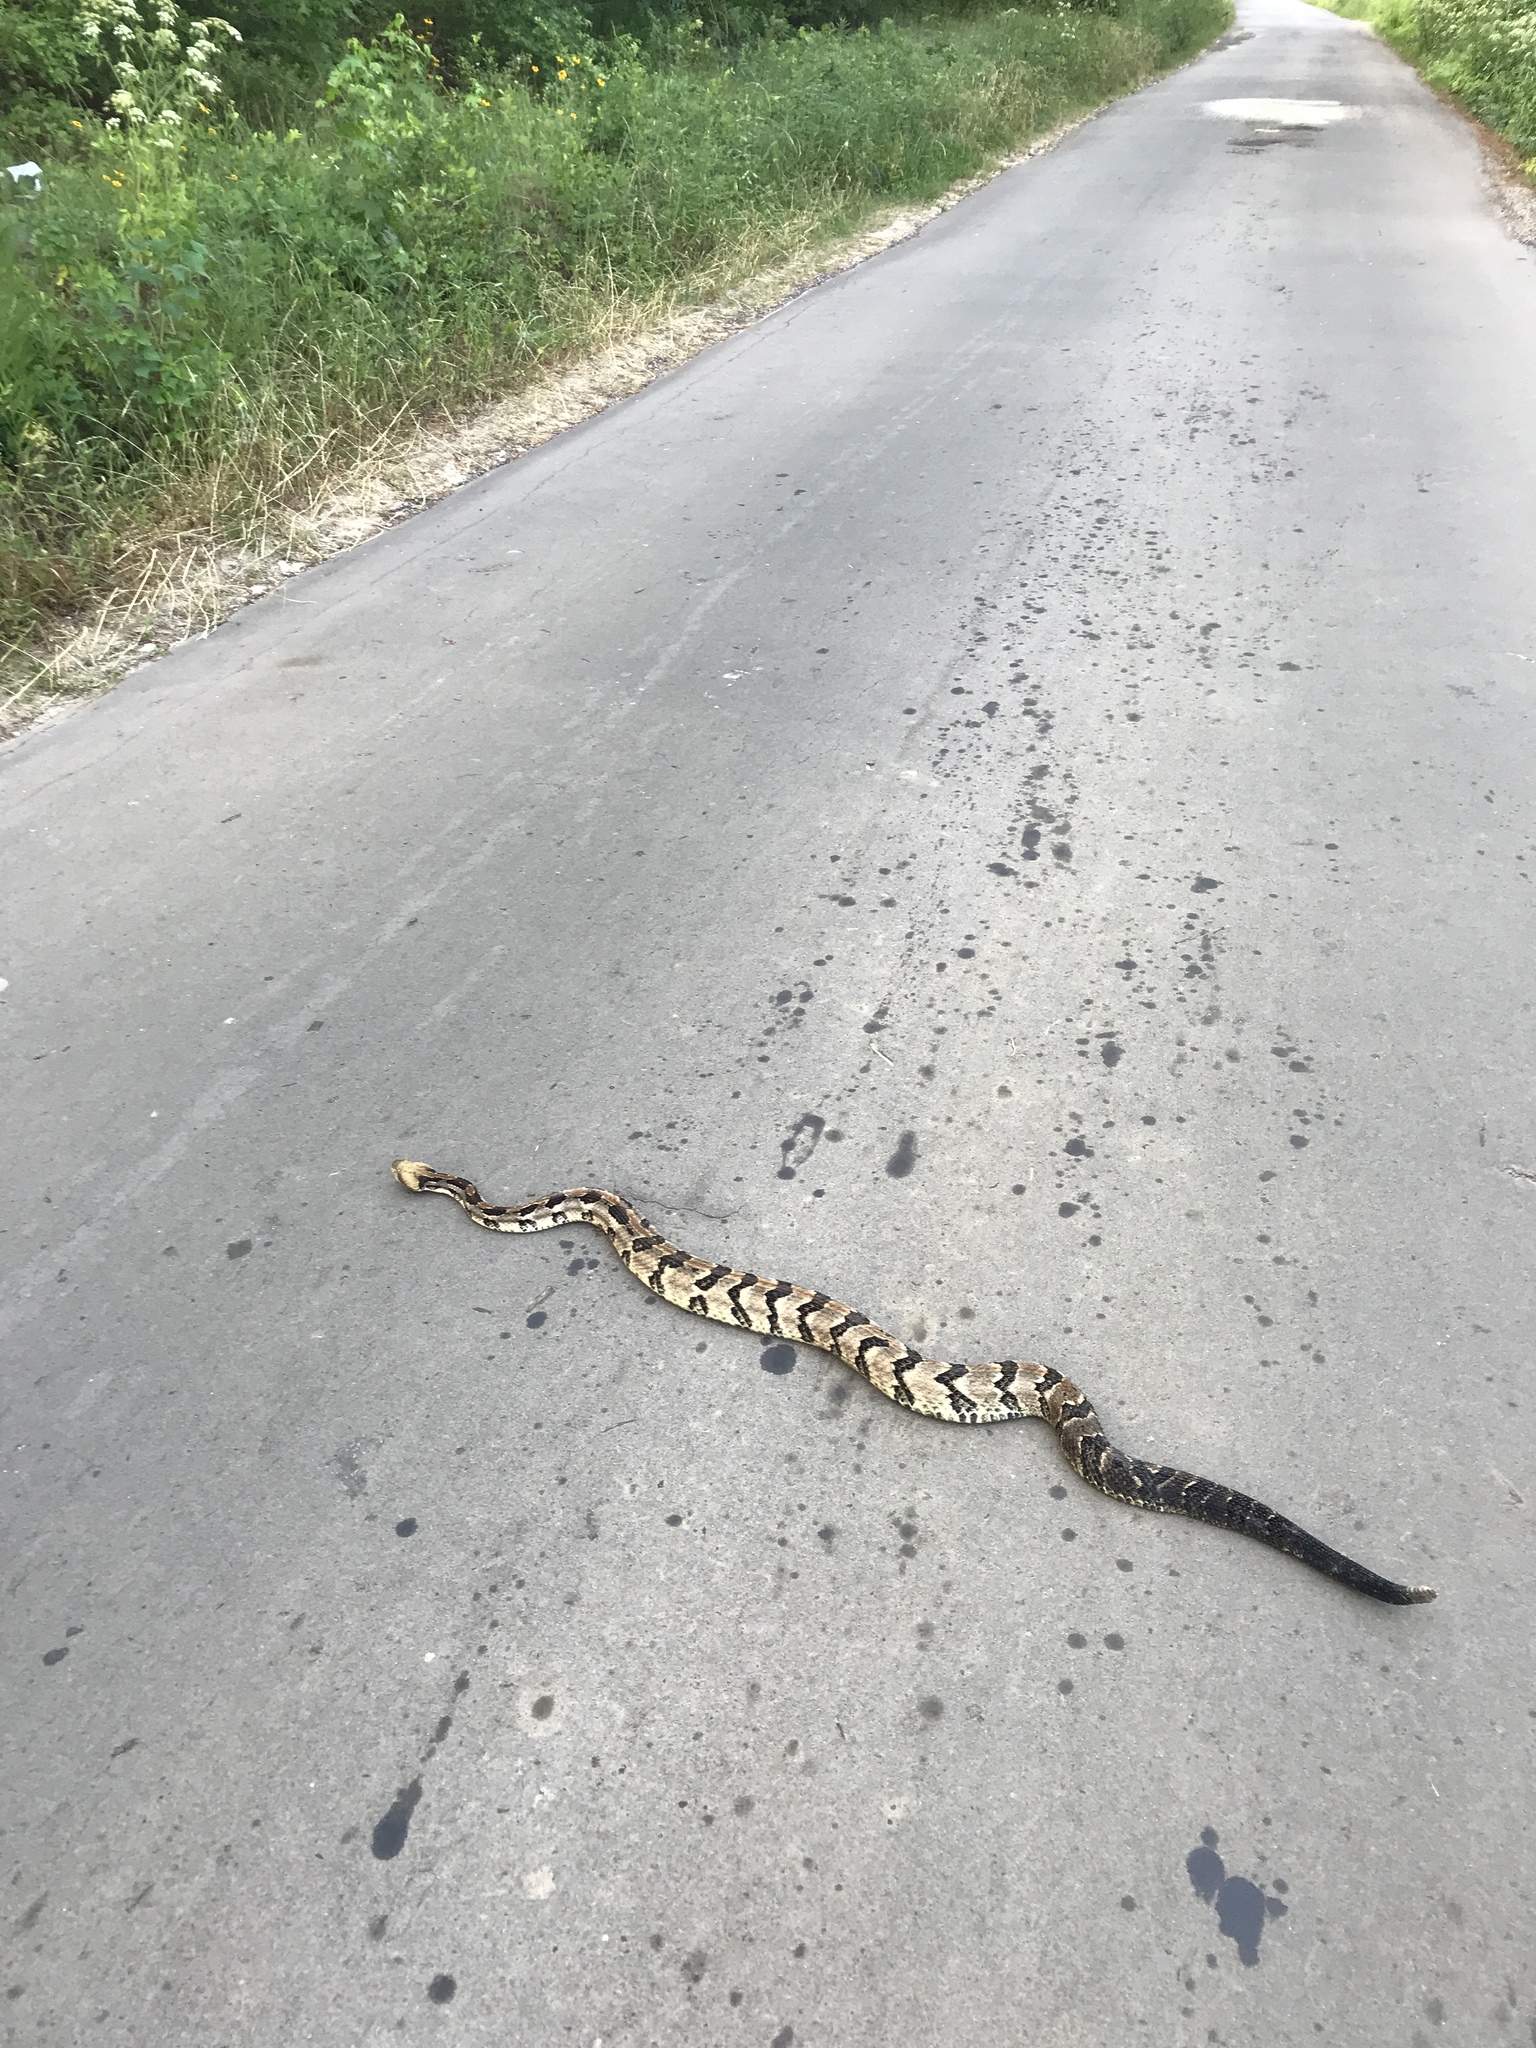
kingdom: Animalia
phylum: Chordata
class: Squamata
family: Viperidae
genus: Crotalus
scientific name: Crotalus horridus
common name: Timber rattlesnake
